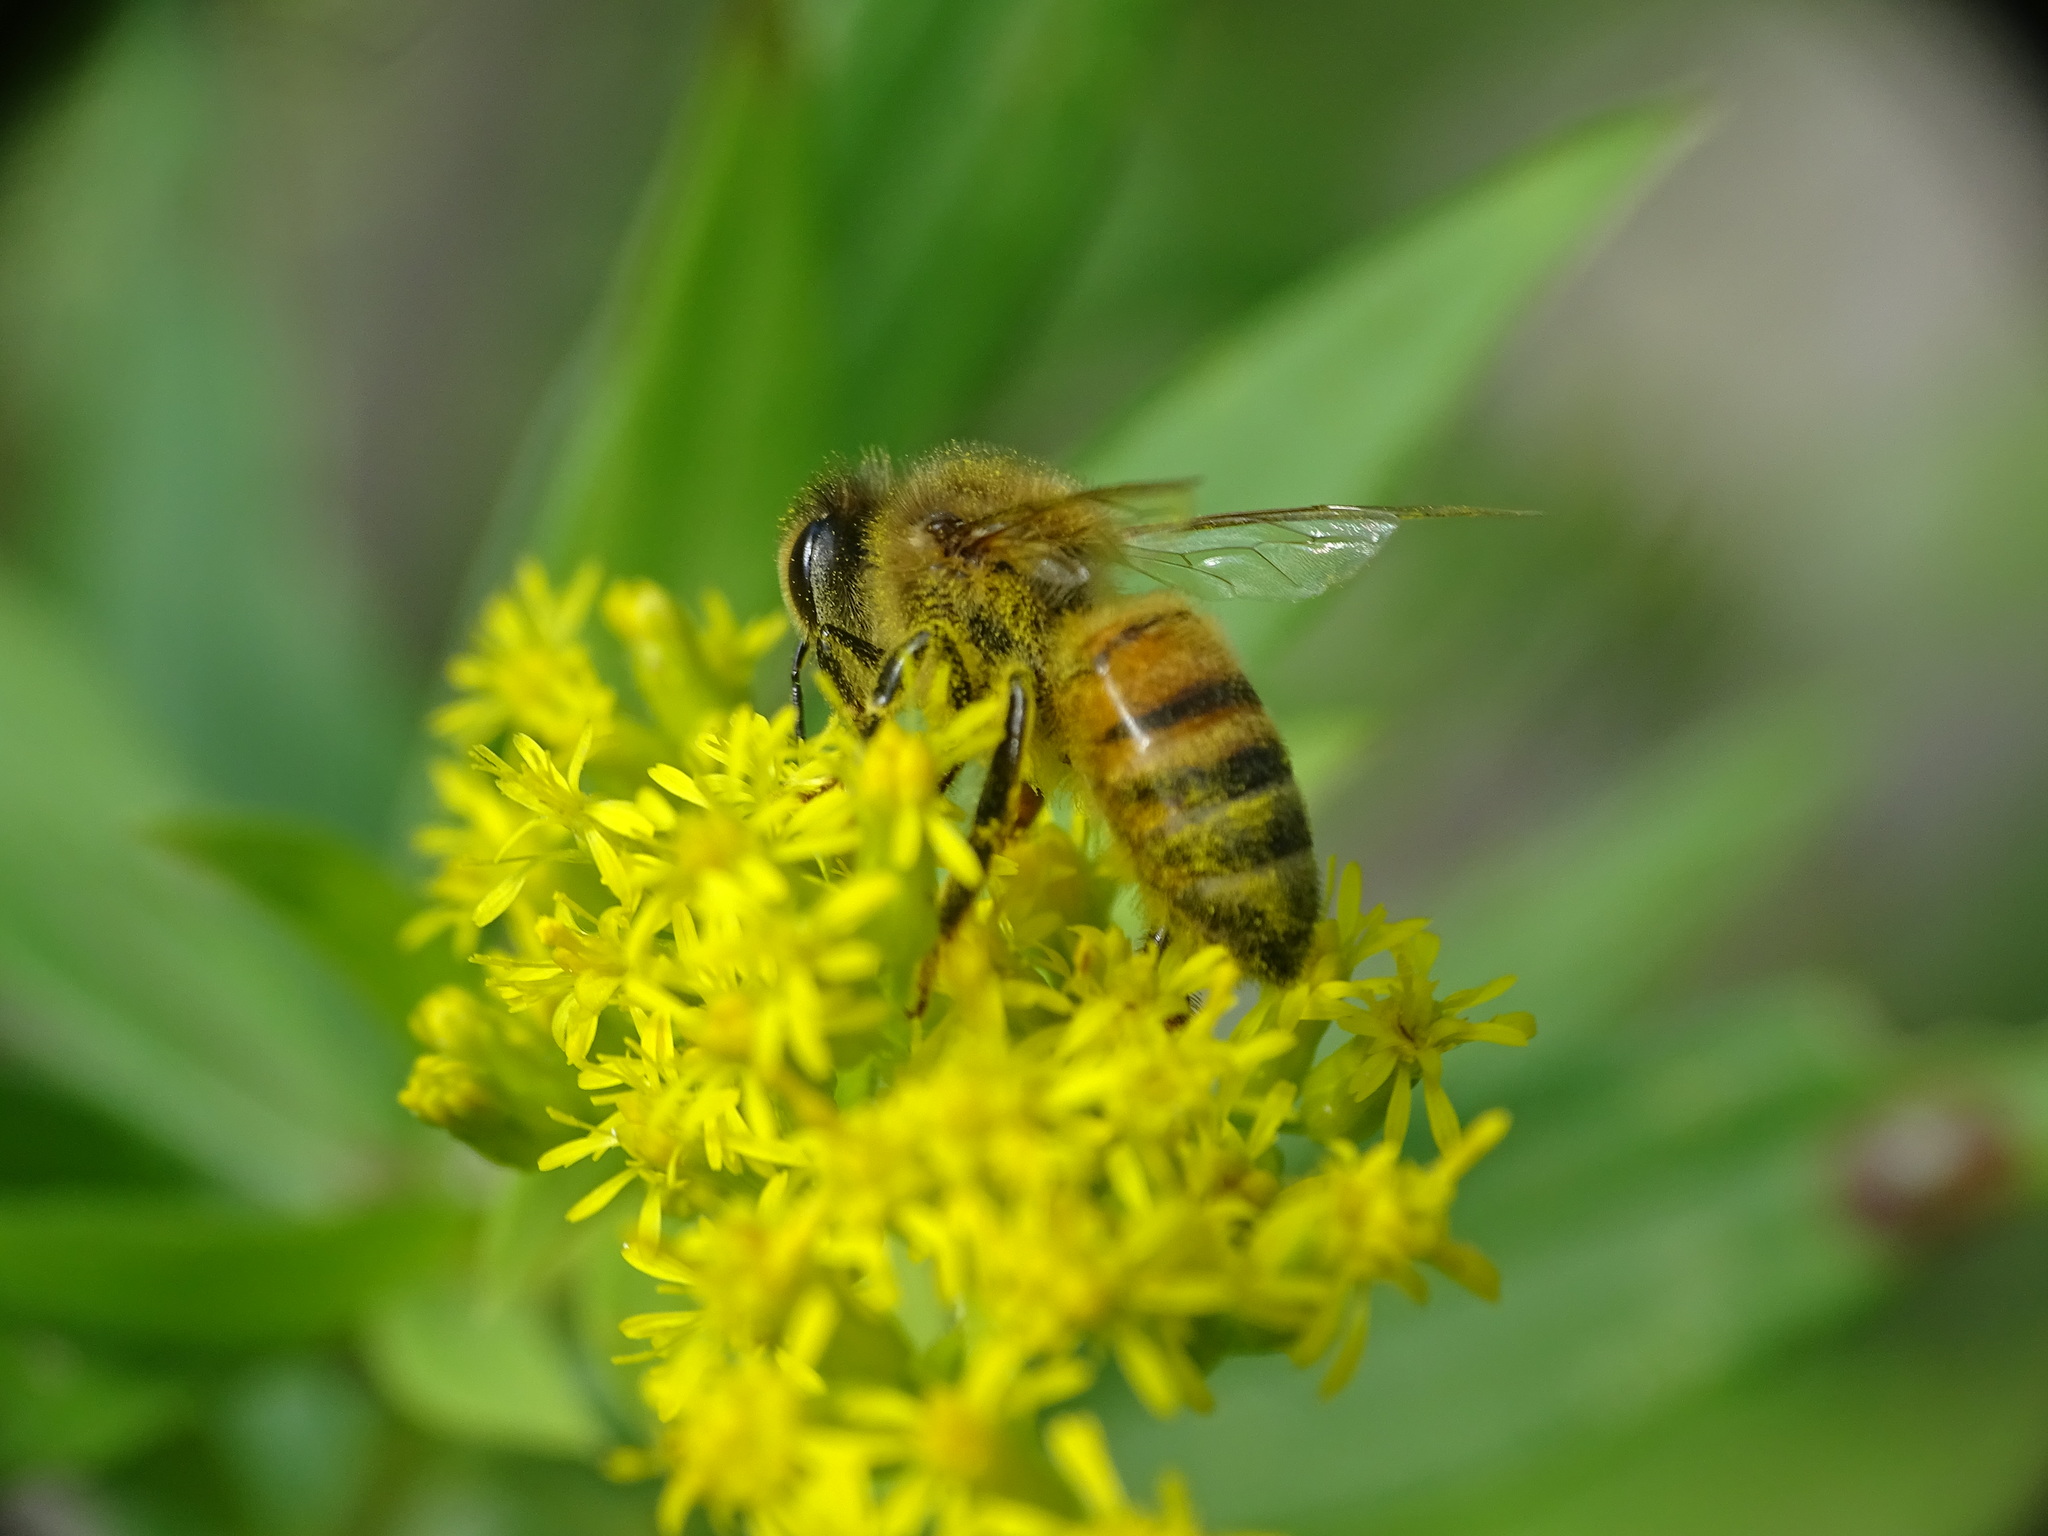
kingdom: Animalia
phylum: Arthropoda
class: Insecta
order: Hymenoptera
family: Apidae
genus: Apis
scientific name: Apis mellifera
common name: Honey bee
